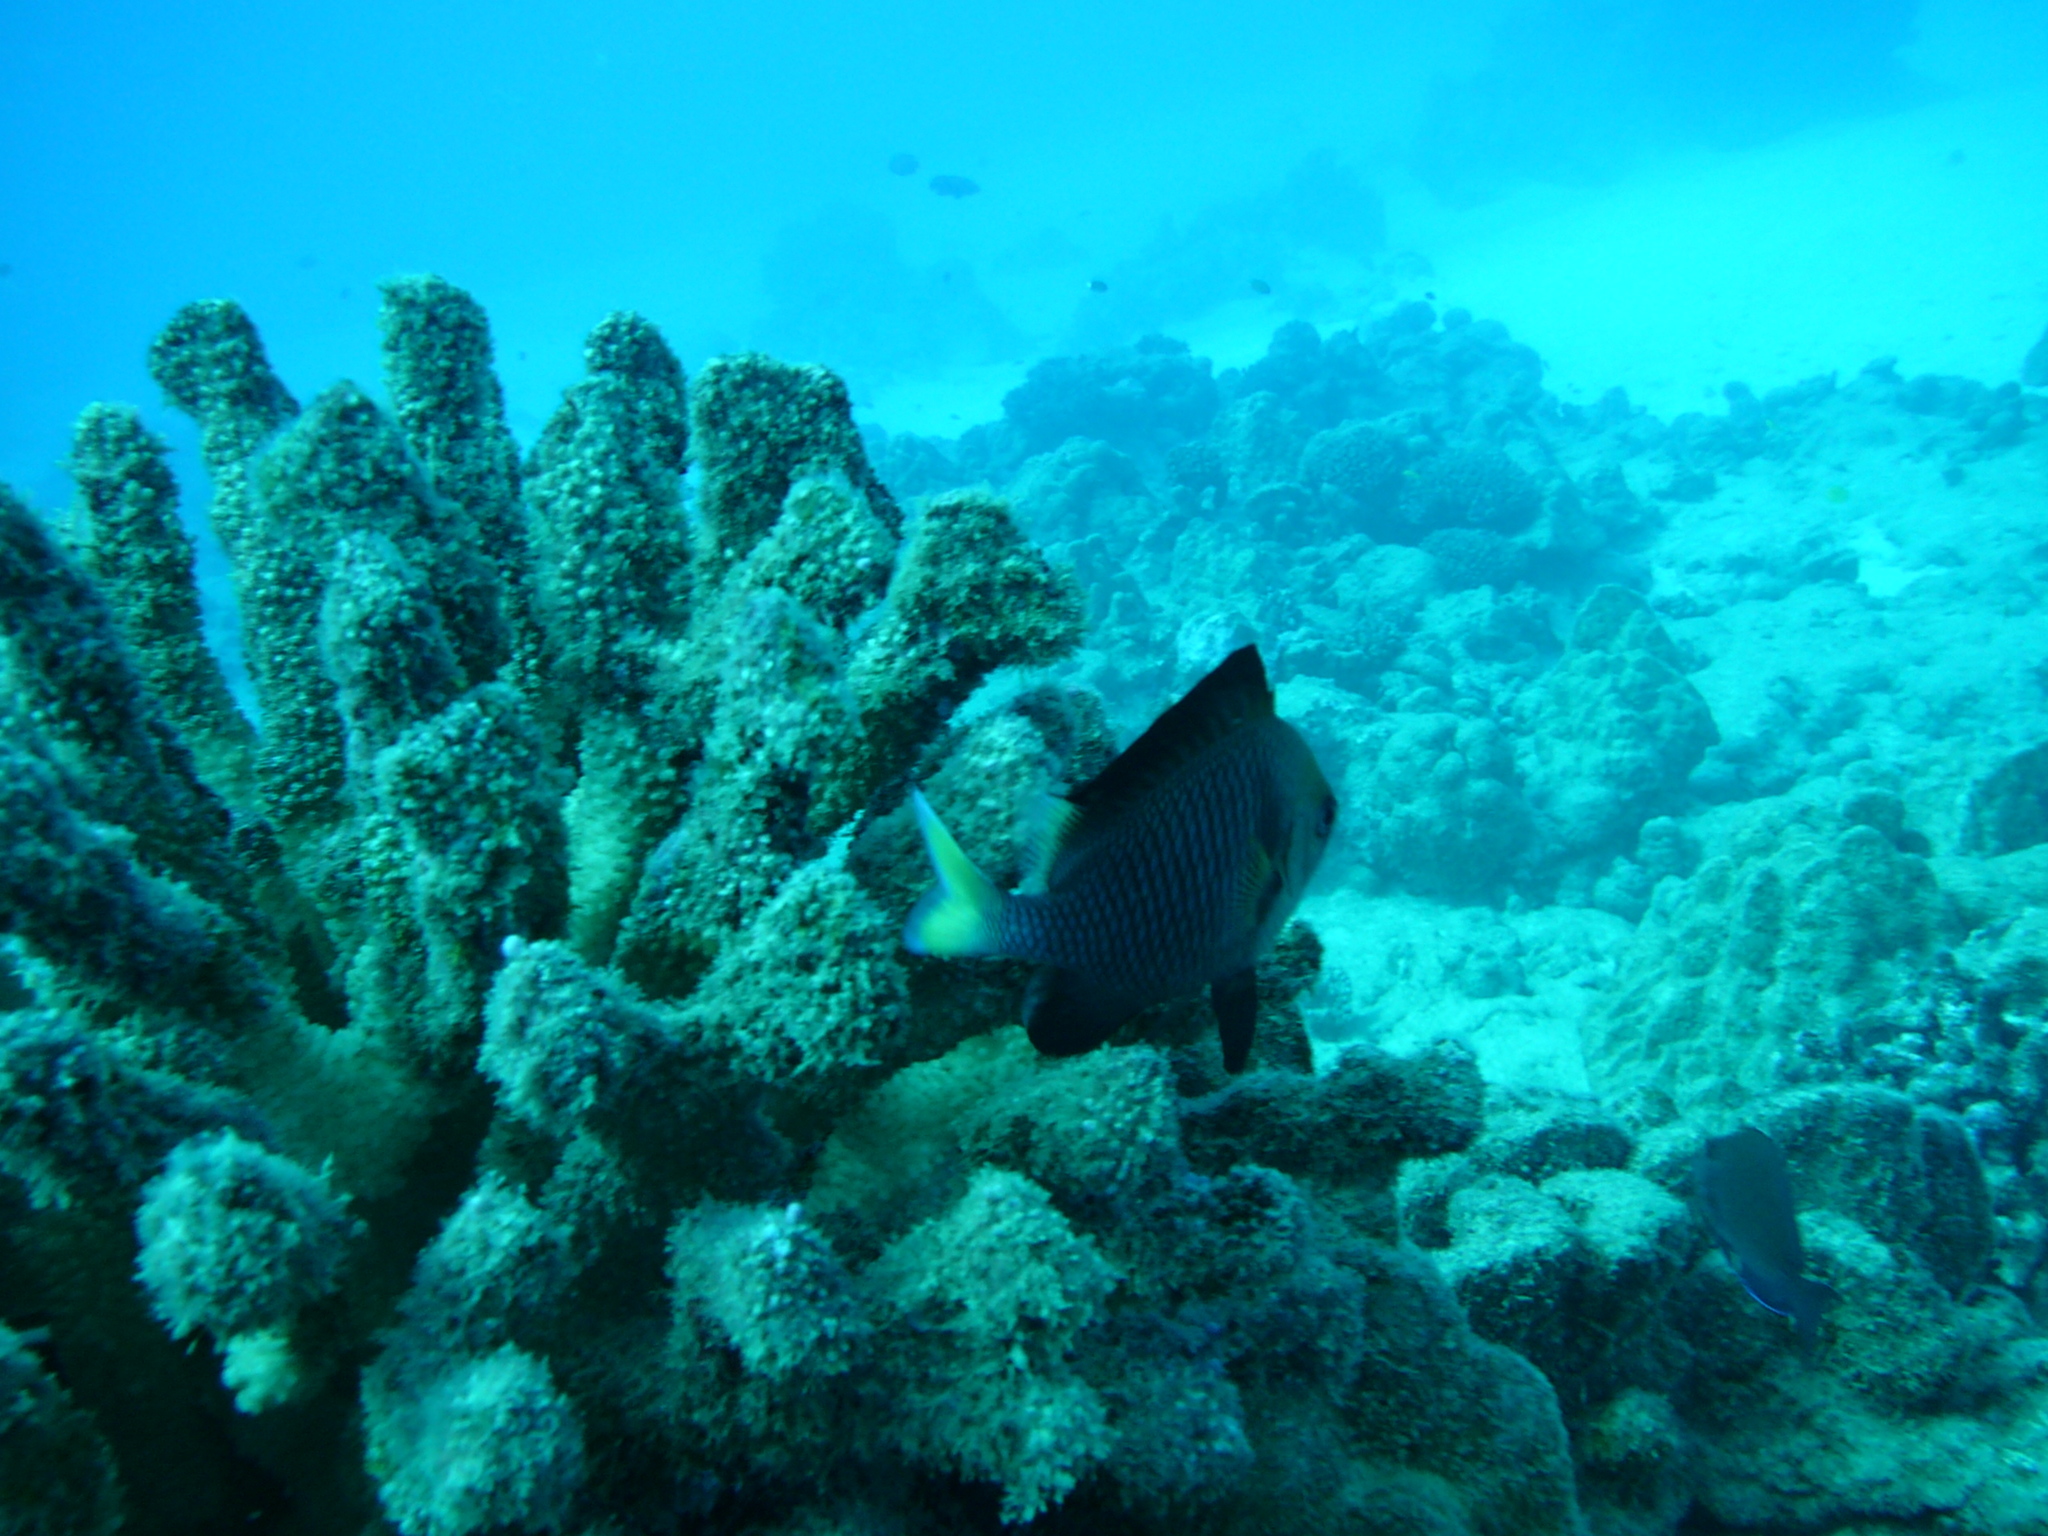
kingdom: Animalia
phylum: Chordata
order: Perciformes
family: Pomacentridae
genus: Dascyllus
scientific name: Dascyllus flavicaudus
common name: Yellow-tailed dascyllus
